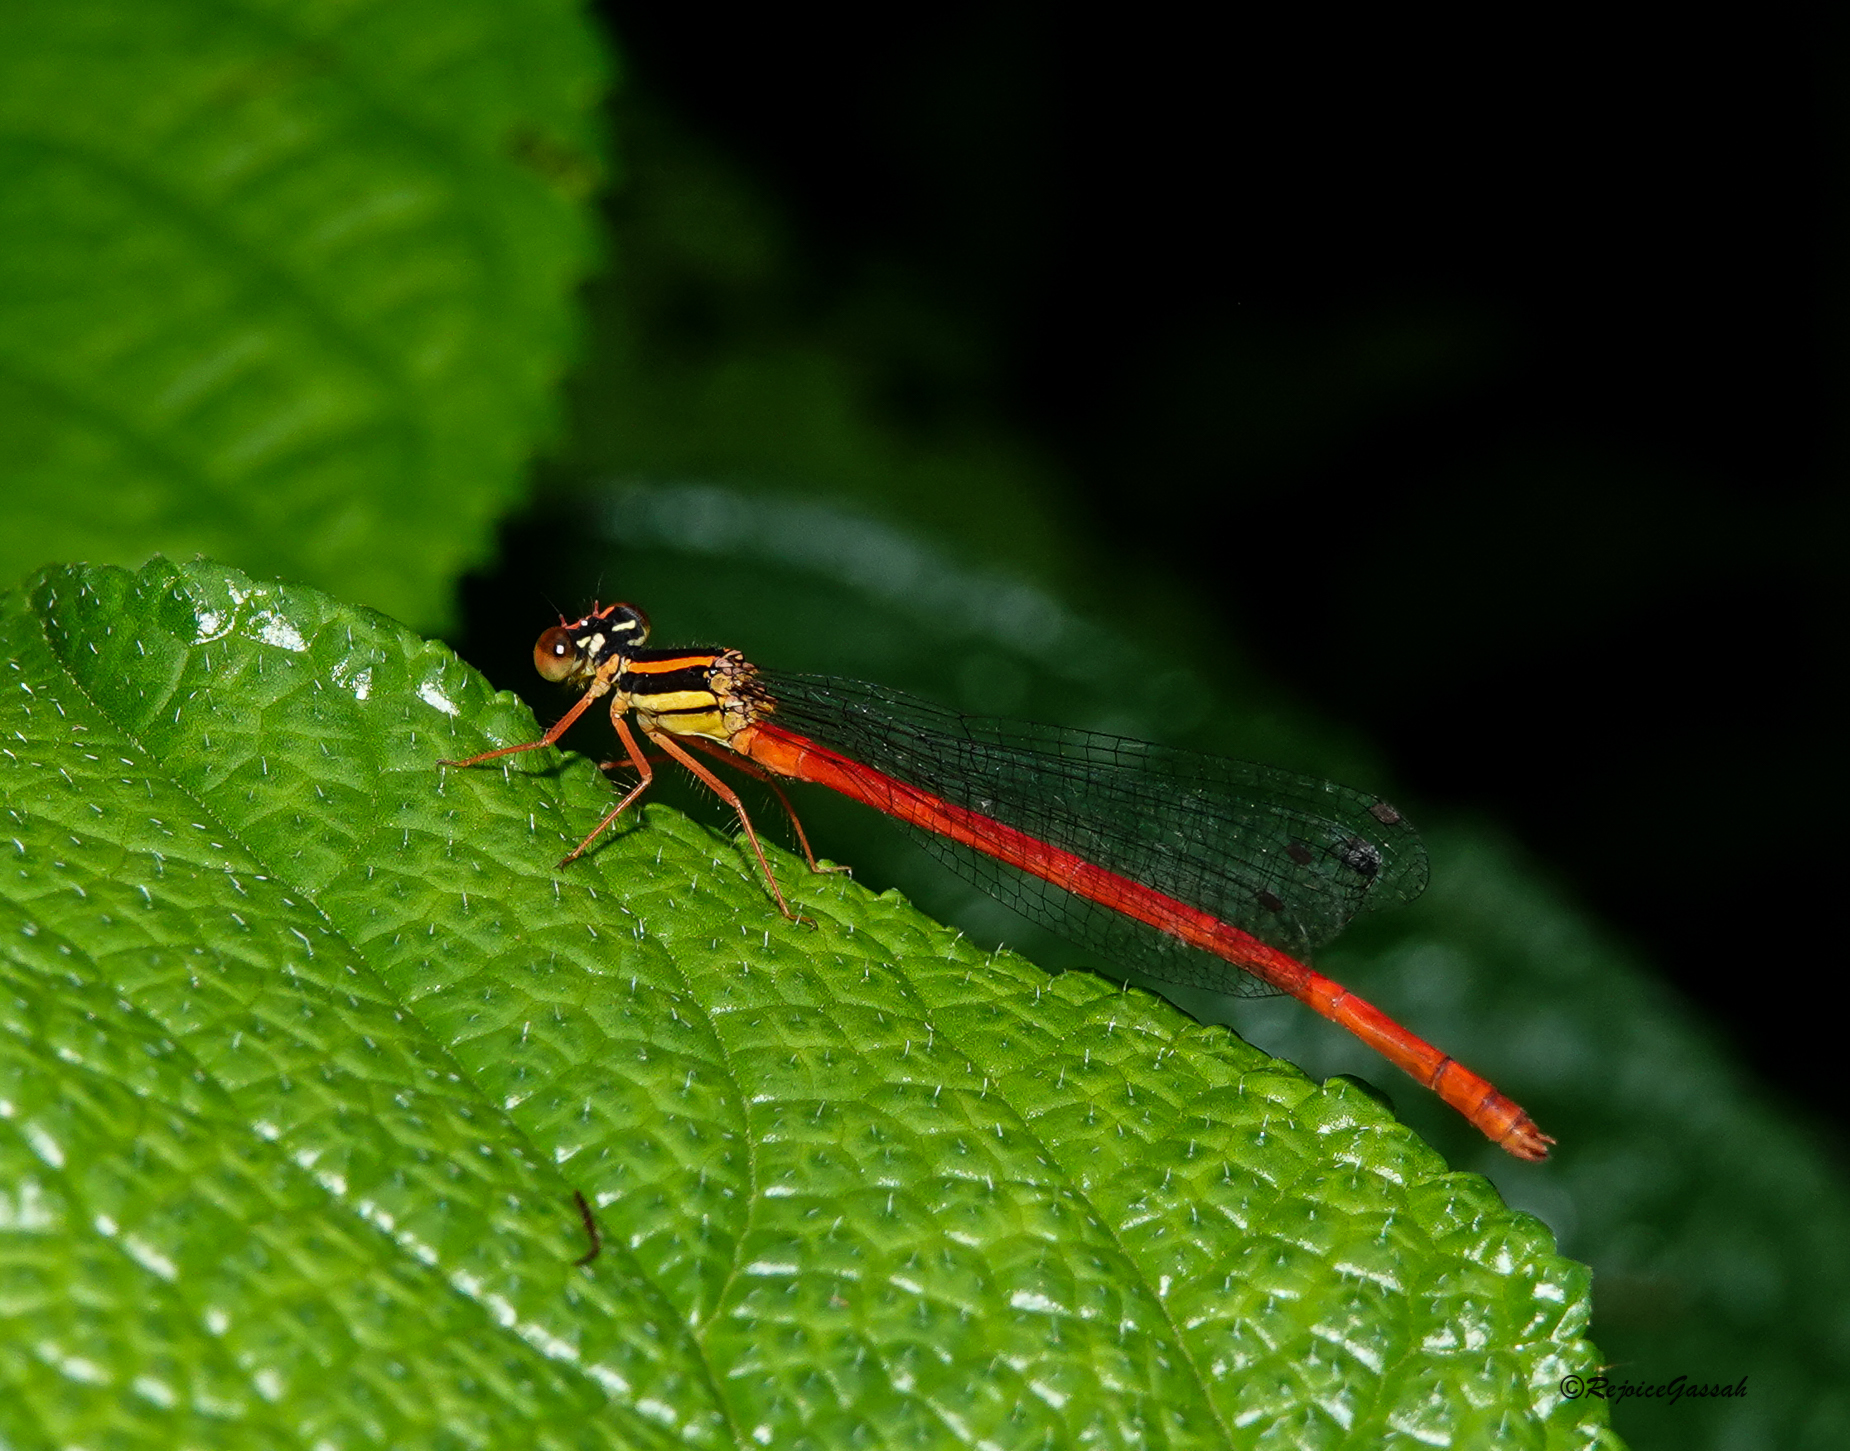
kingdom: Animalia
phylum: Arthropoda
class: Insecta
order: Odonata
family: Platycnemididae
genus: Calicnemia
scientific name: Calicnemia eximia
